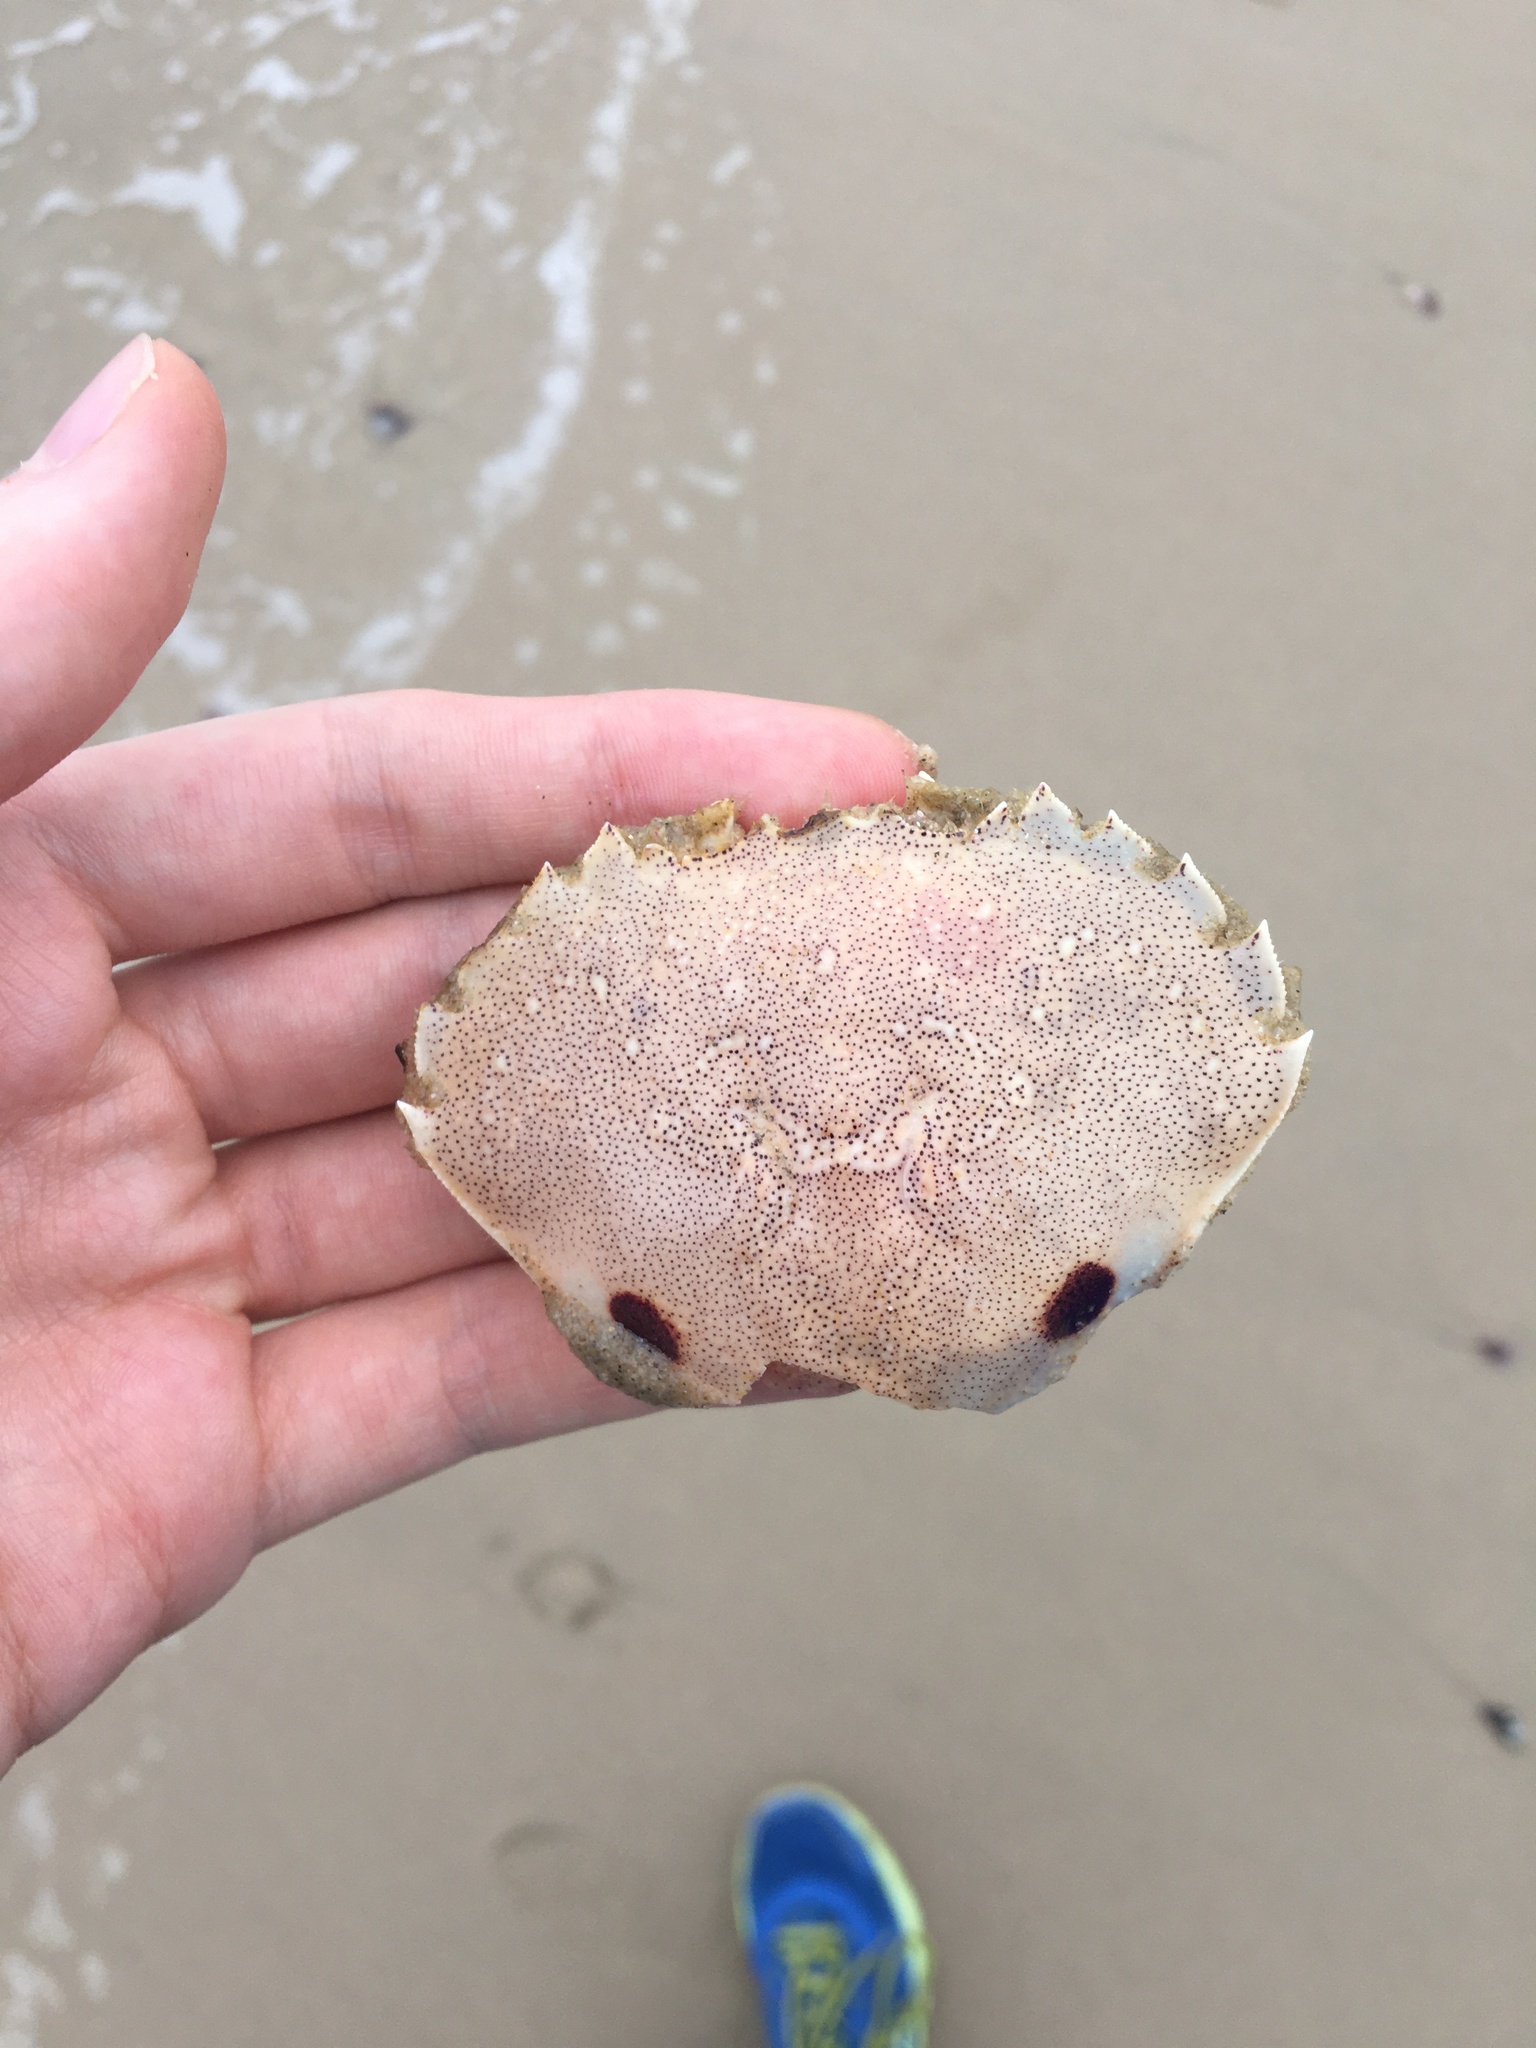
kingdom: Animalia
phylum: Arthropoda
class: Malacostraca
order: Decapoda
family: Ovalipidae
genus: Ovalipes
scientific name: Ovalipes australiensis
